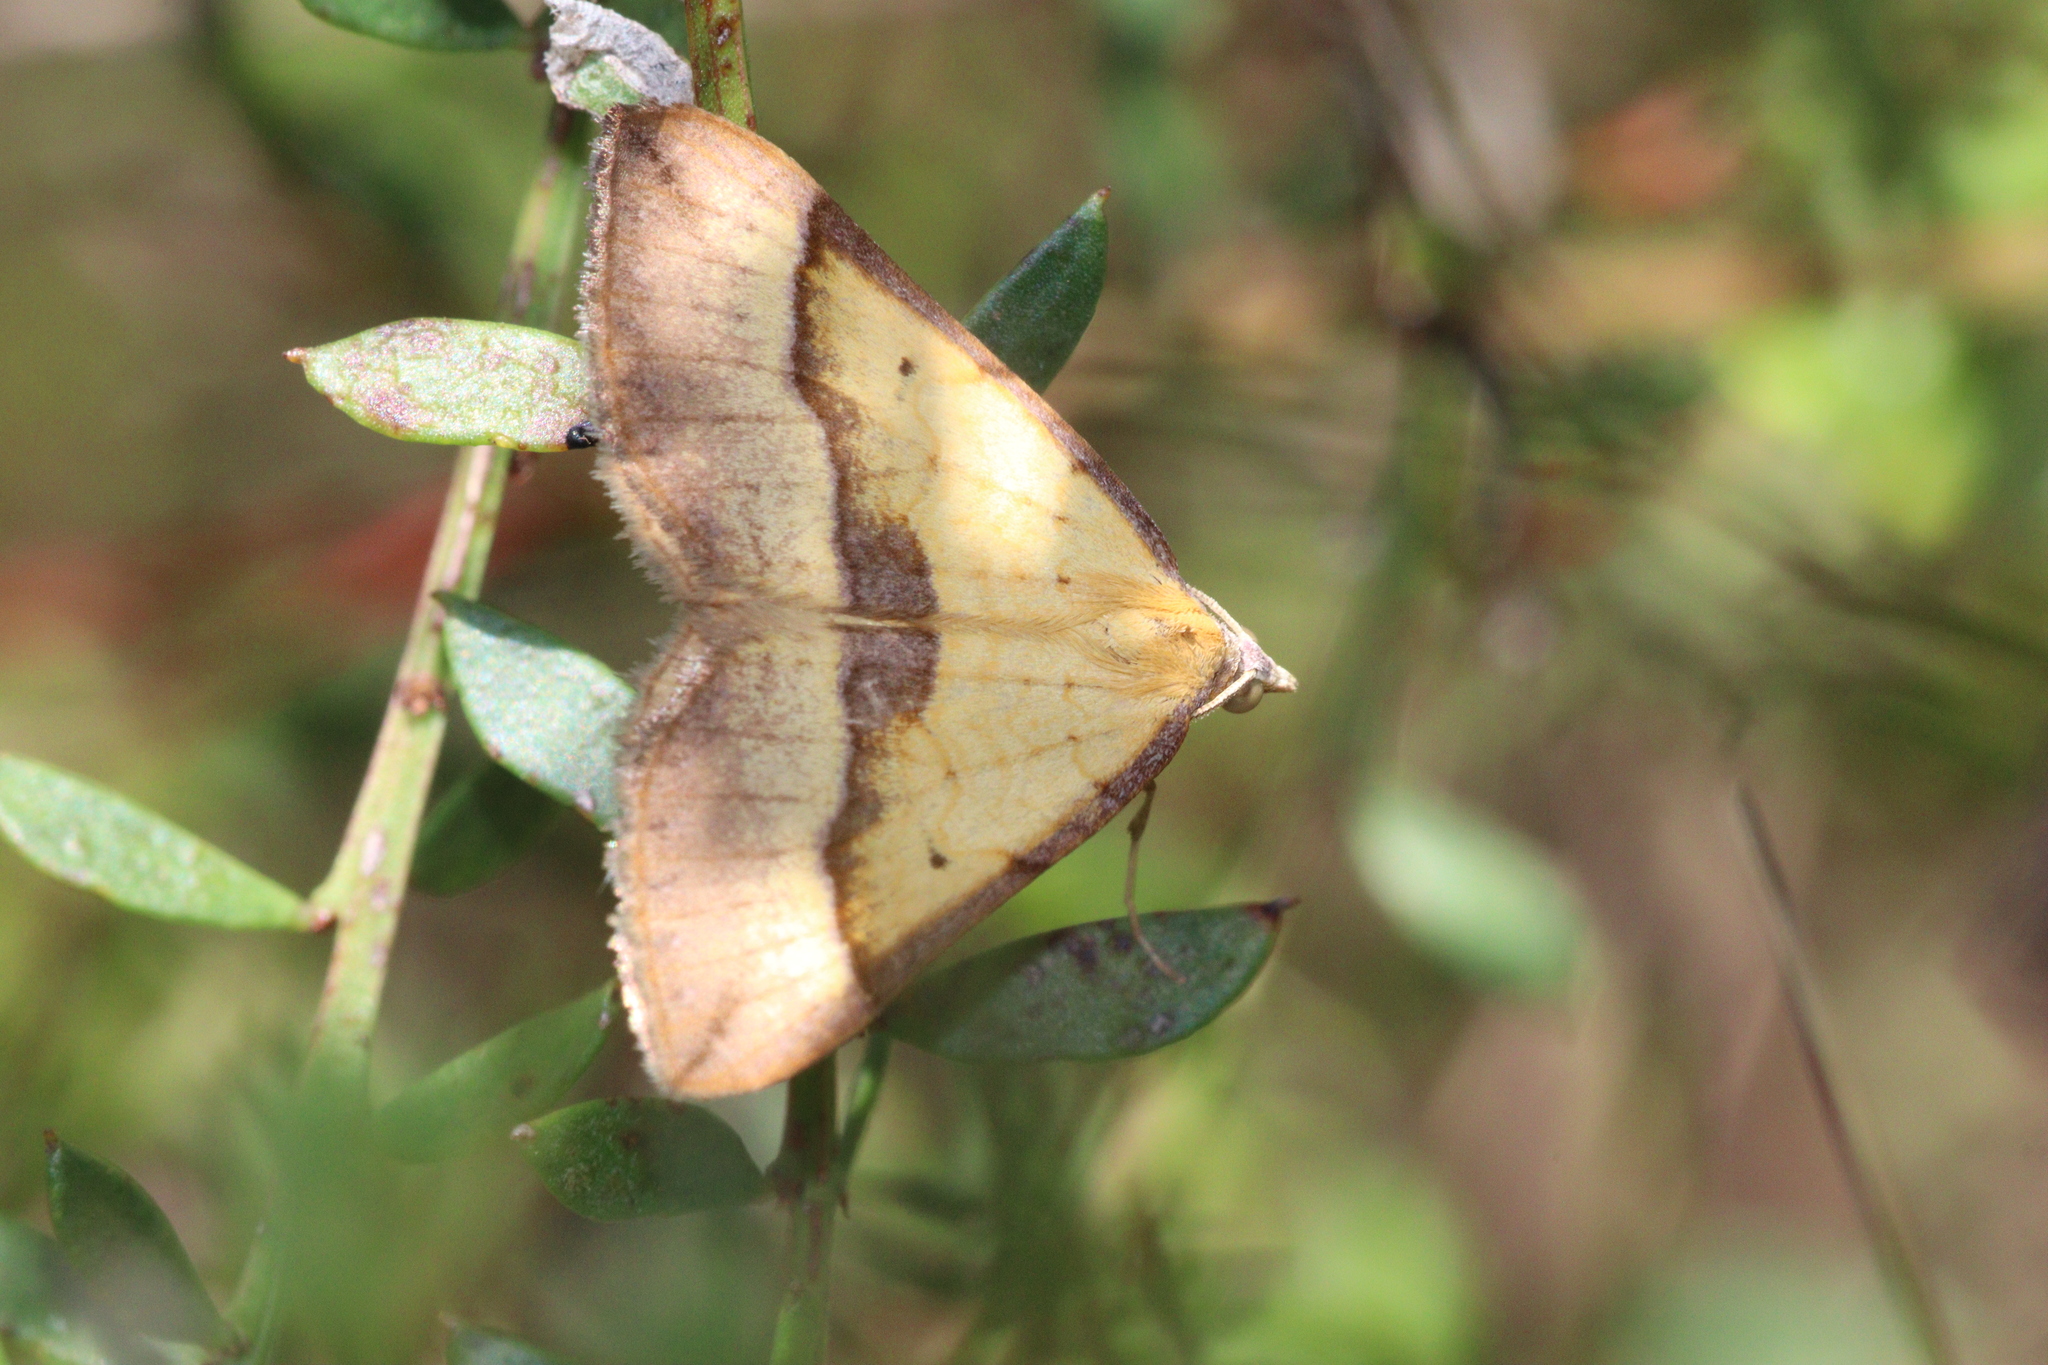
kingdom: Animalia
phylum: Arthropoda
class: Insecta
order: Lepidoptera
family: Geometridae
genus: Anachloris
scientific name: Anachloris subochraria
